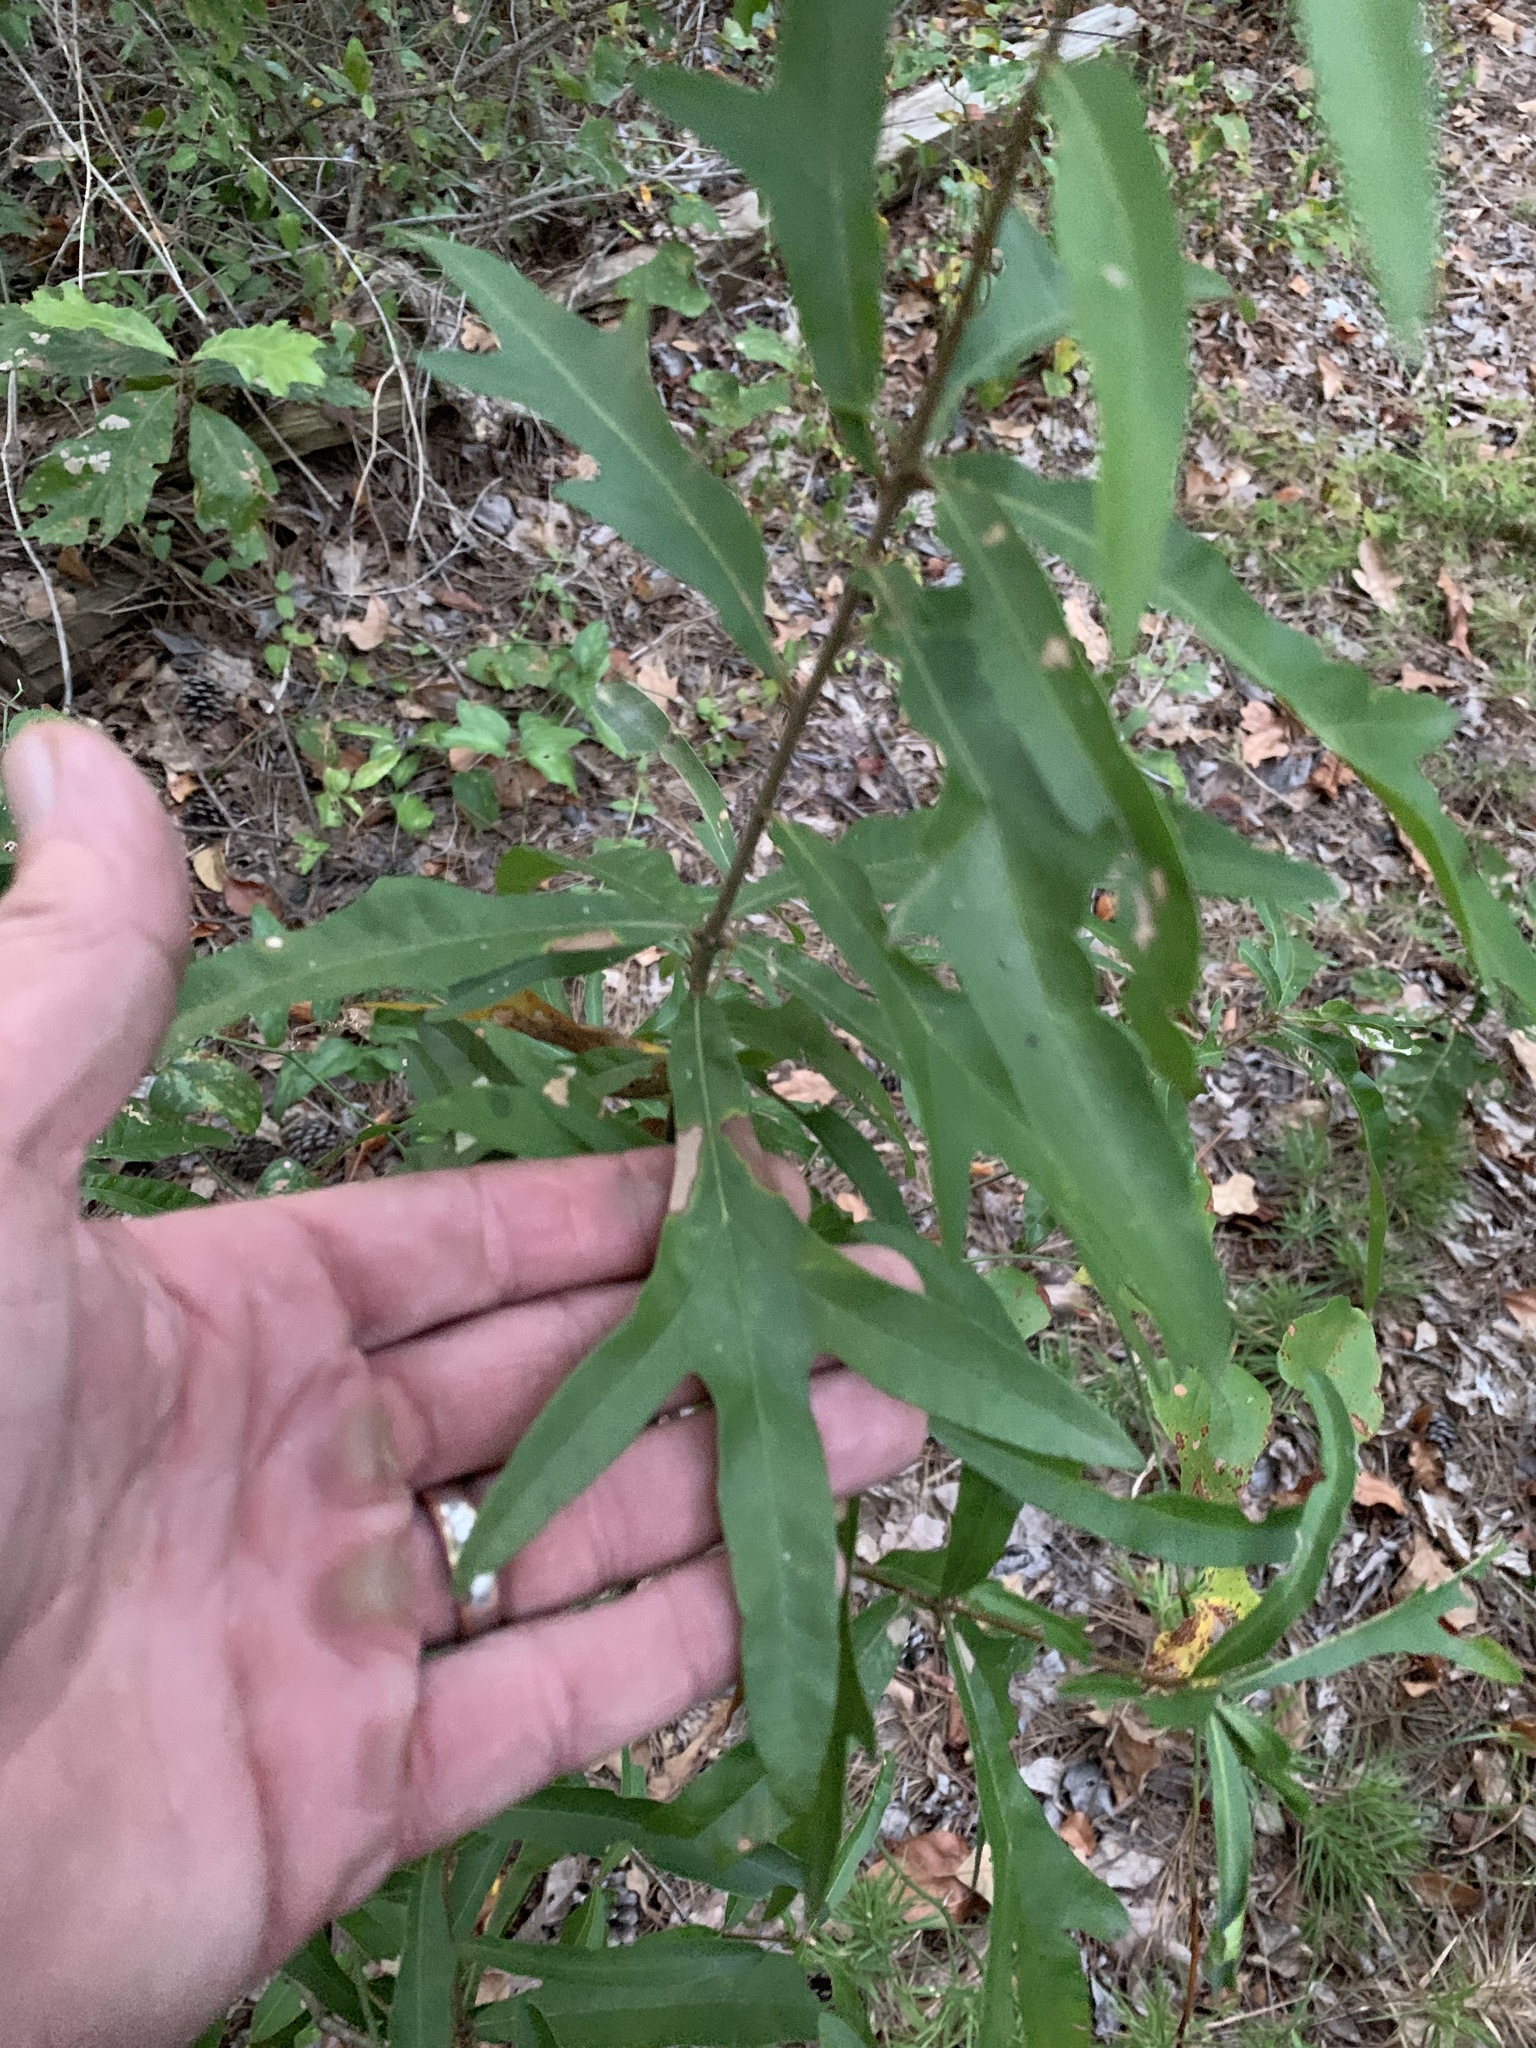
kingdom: Plantae
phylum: Tracheophyta
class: Magnoliopsida
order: Fagales
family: Fagaceae
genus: Quercus
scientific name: Quercus nigra
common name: Water oak
